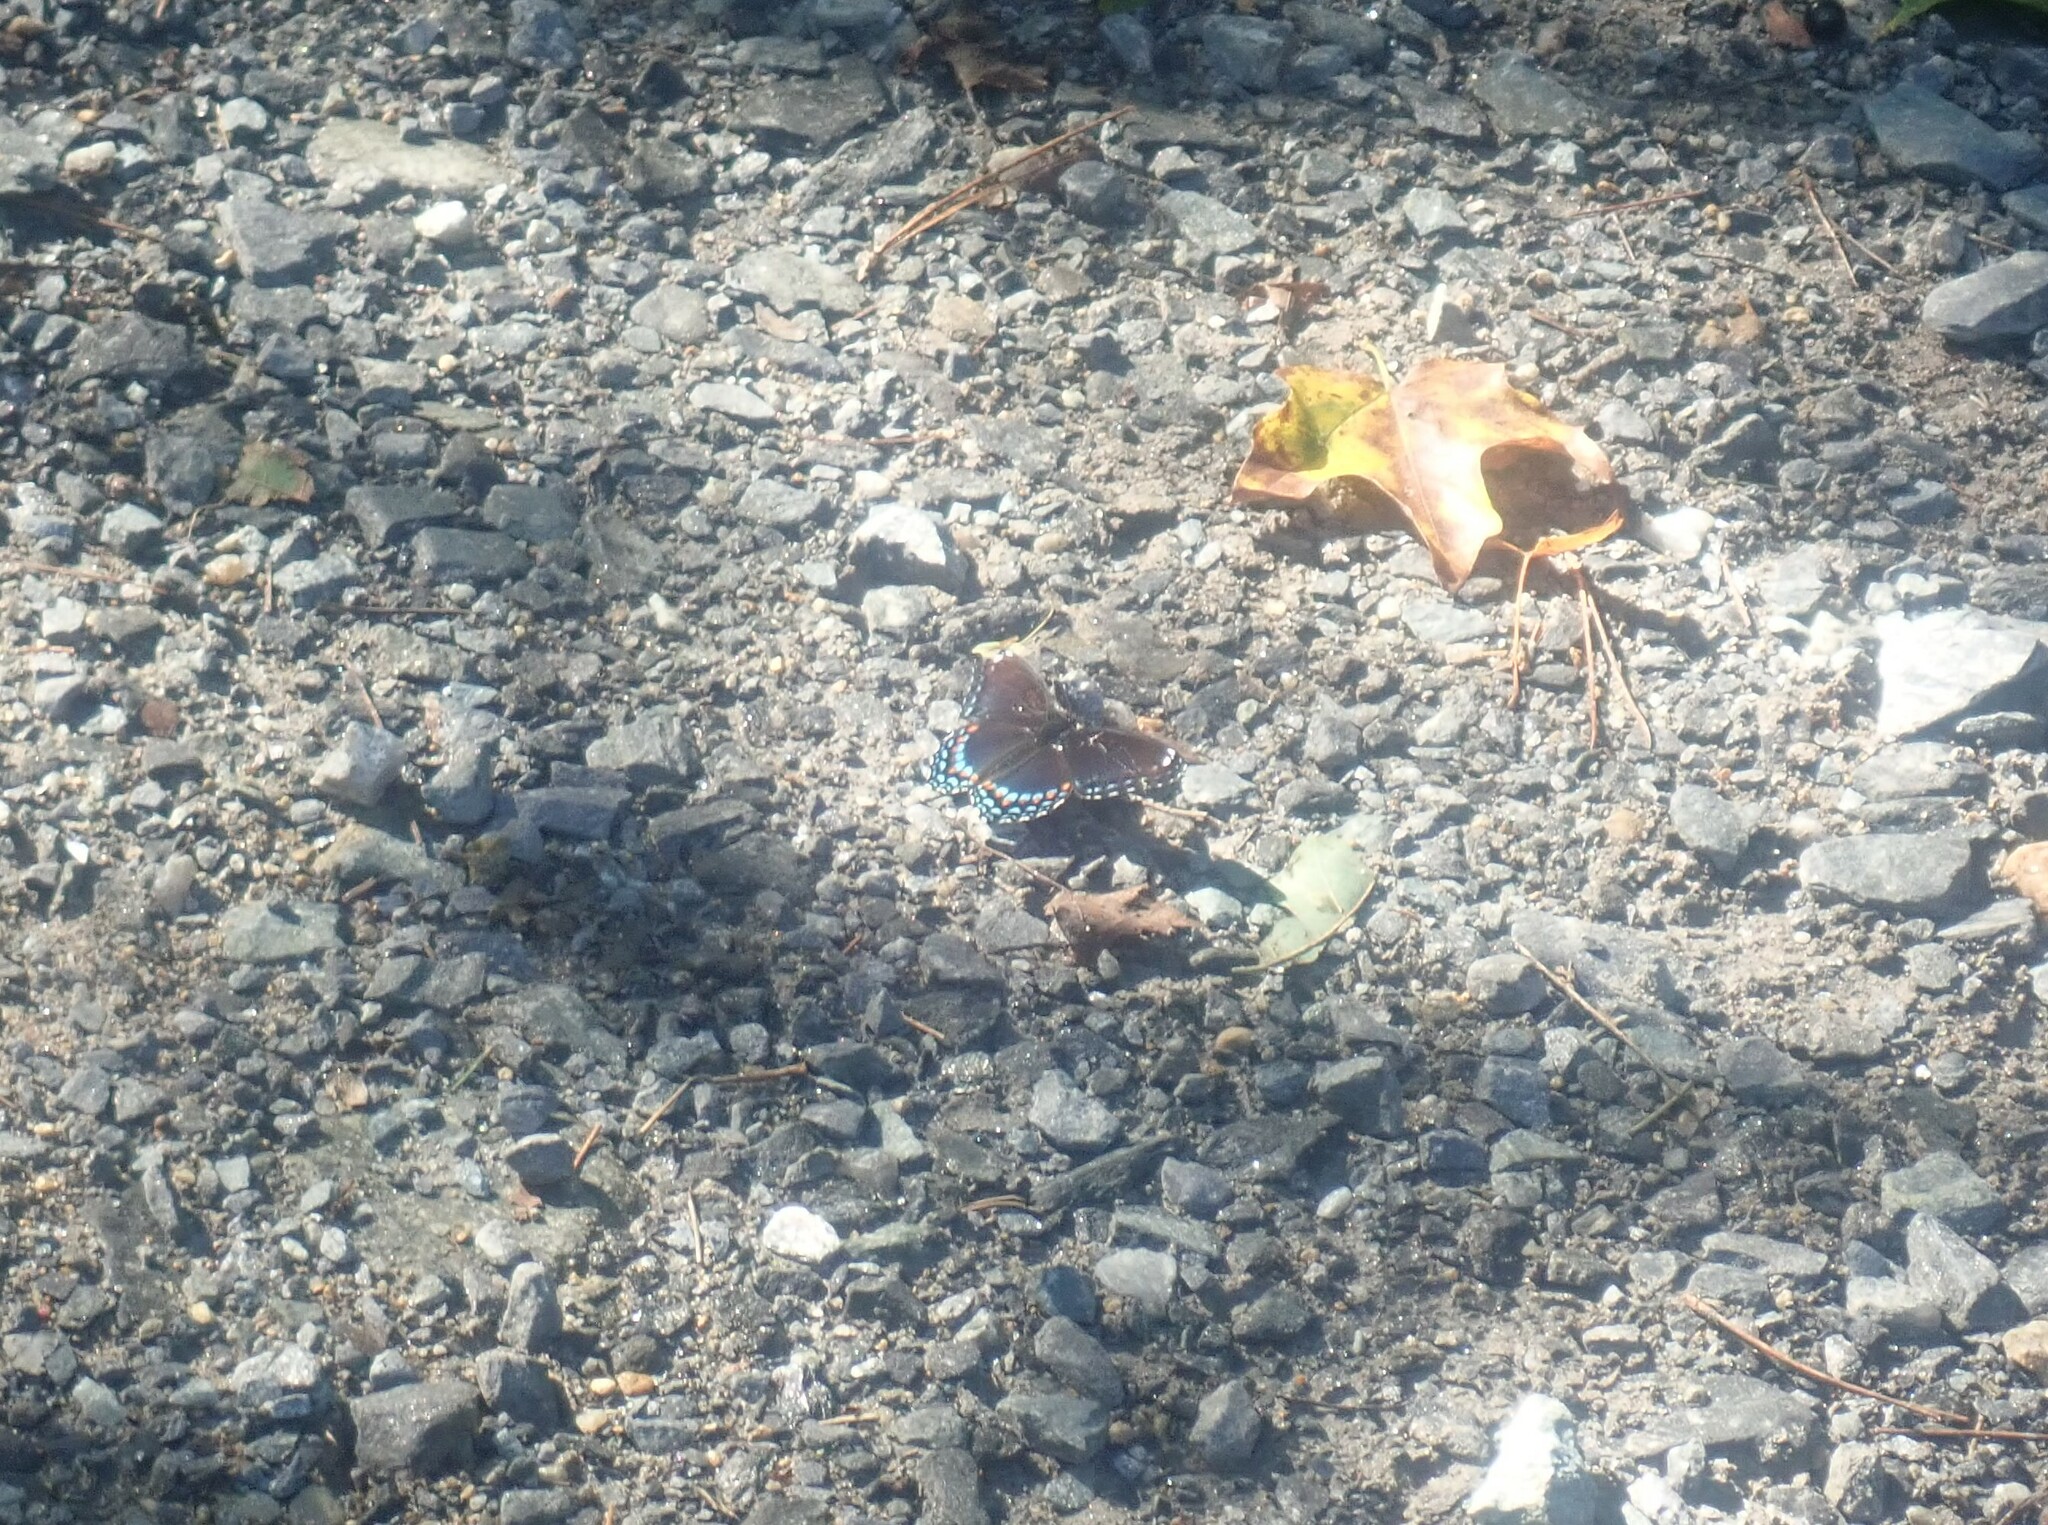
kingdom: Animalia
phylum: Arthropoda
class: Insecta
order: Lepidoptera
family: Nymphalidae
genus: Limenitis
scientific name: Limenitis arthemis
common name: Red-spotted admiral
